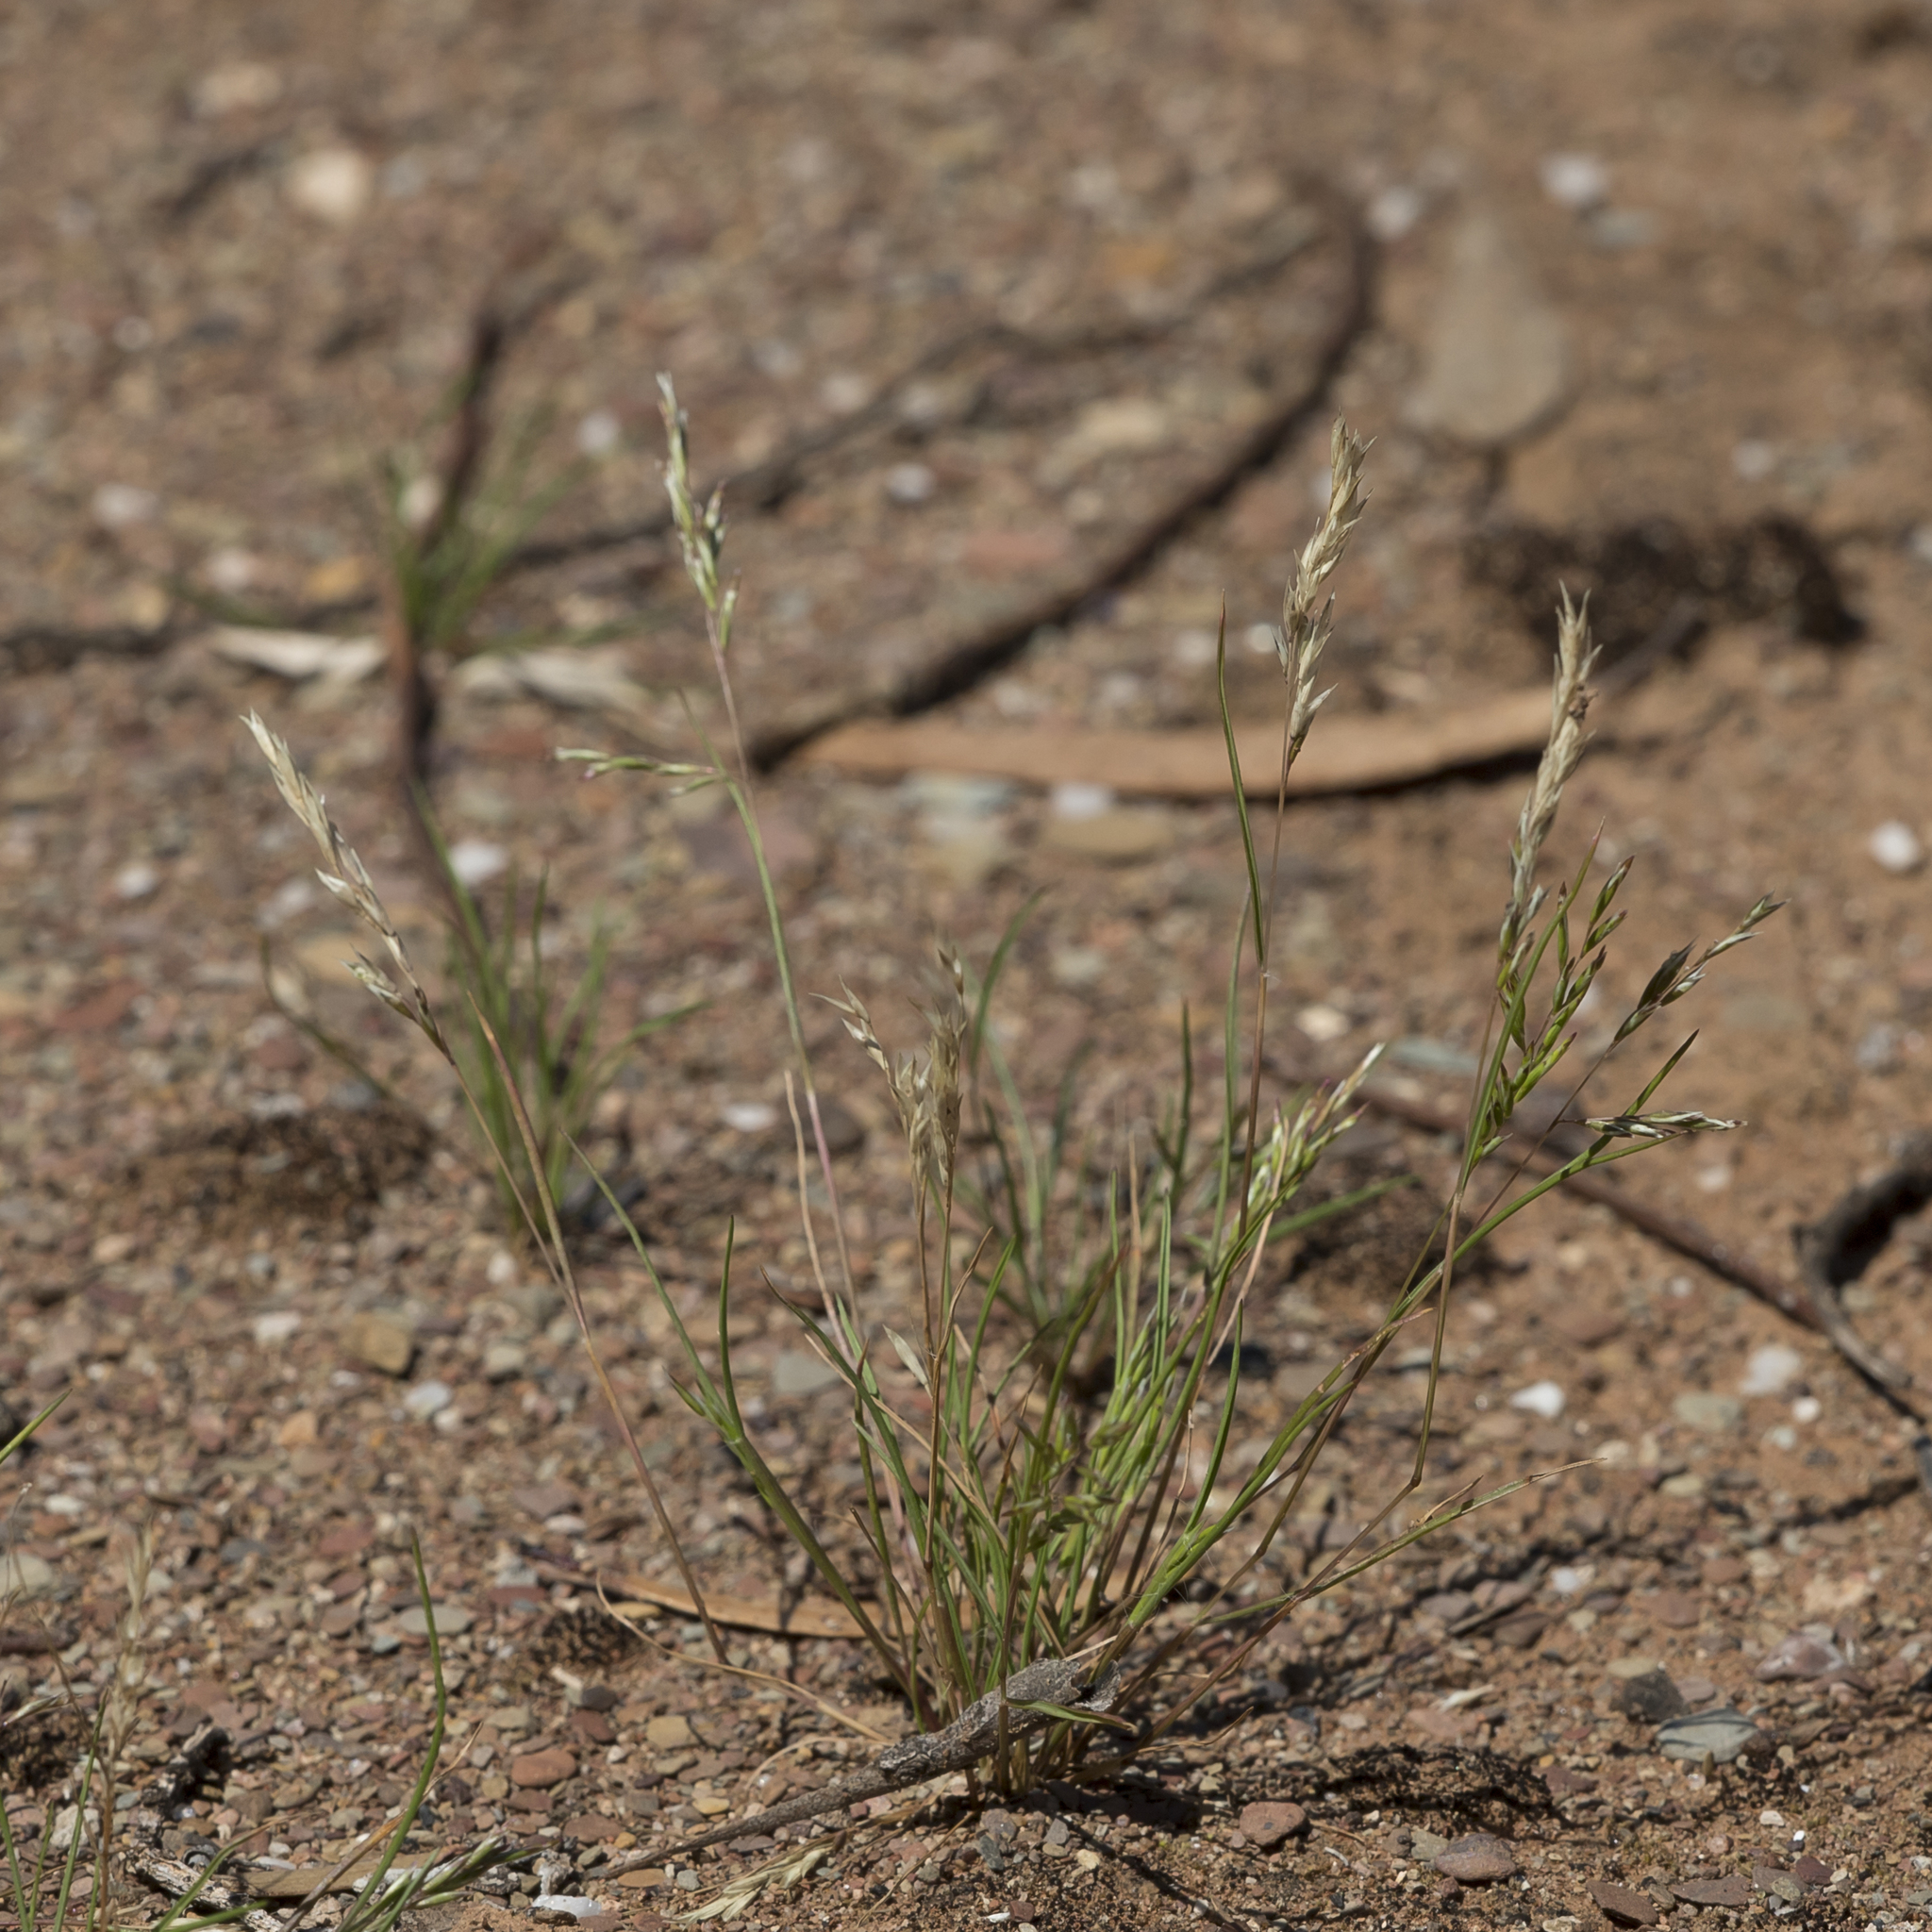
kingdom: Plantae
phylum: Tracheophyta
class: Liliopsida
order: Poales
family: Poaceae
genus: Schismus
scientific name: Schismus barbatus
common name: Kelch-grass
